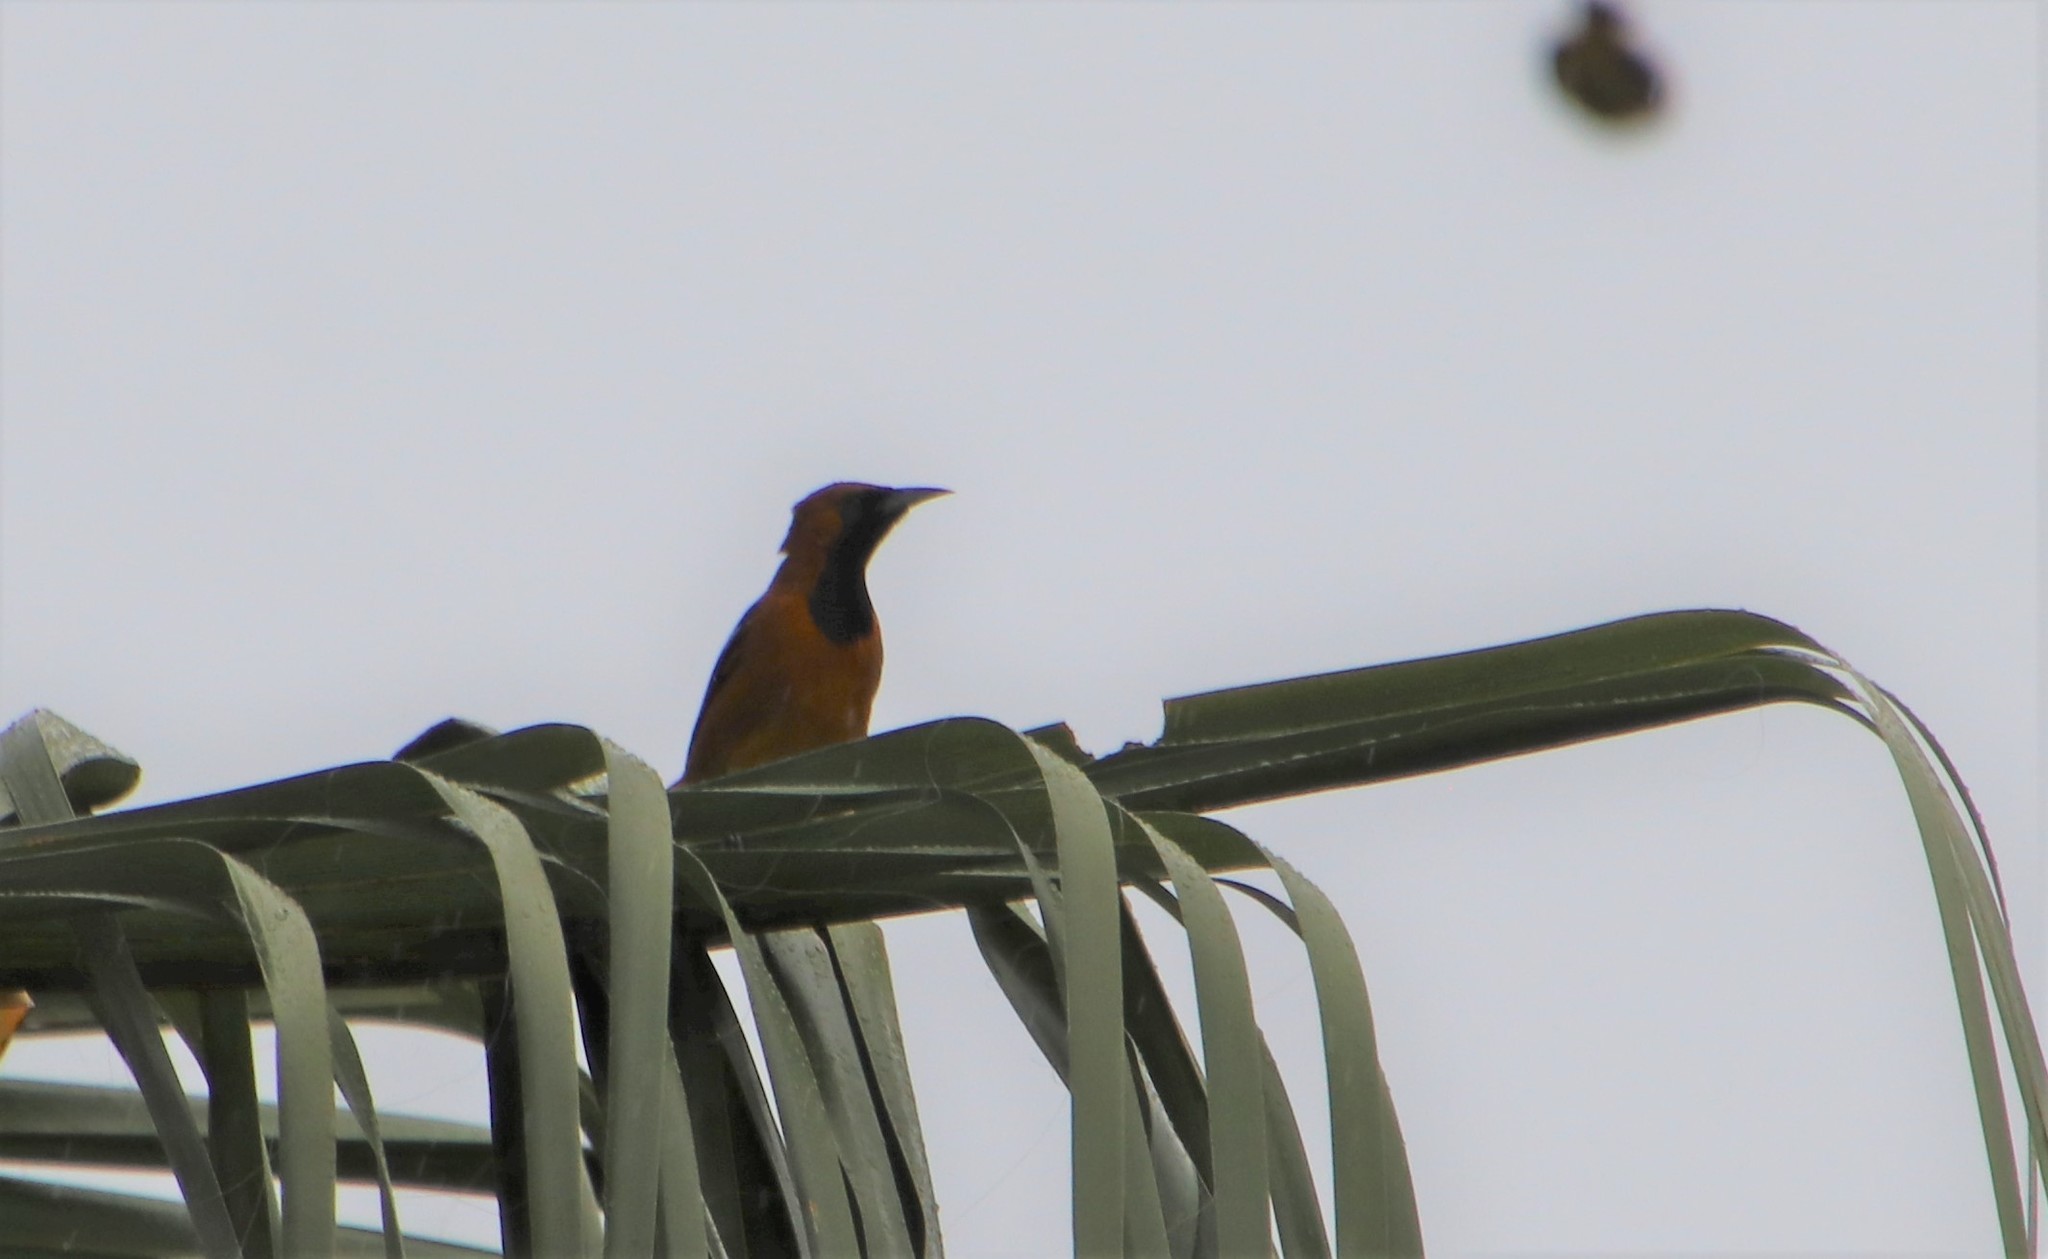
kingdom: Animalia
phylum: Chordata
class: Aves
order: Passeriformes
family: Icteridae
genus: Icterus
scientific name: Icterus cucullatus
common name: Hooded oriole
